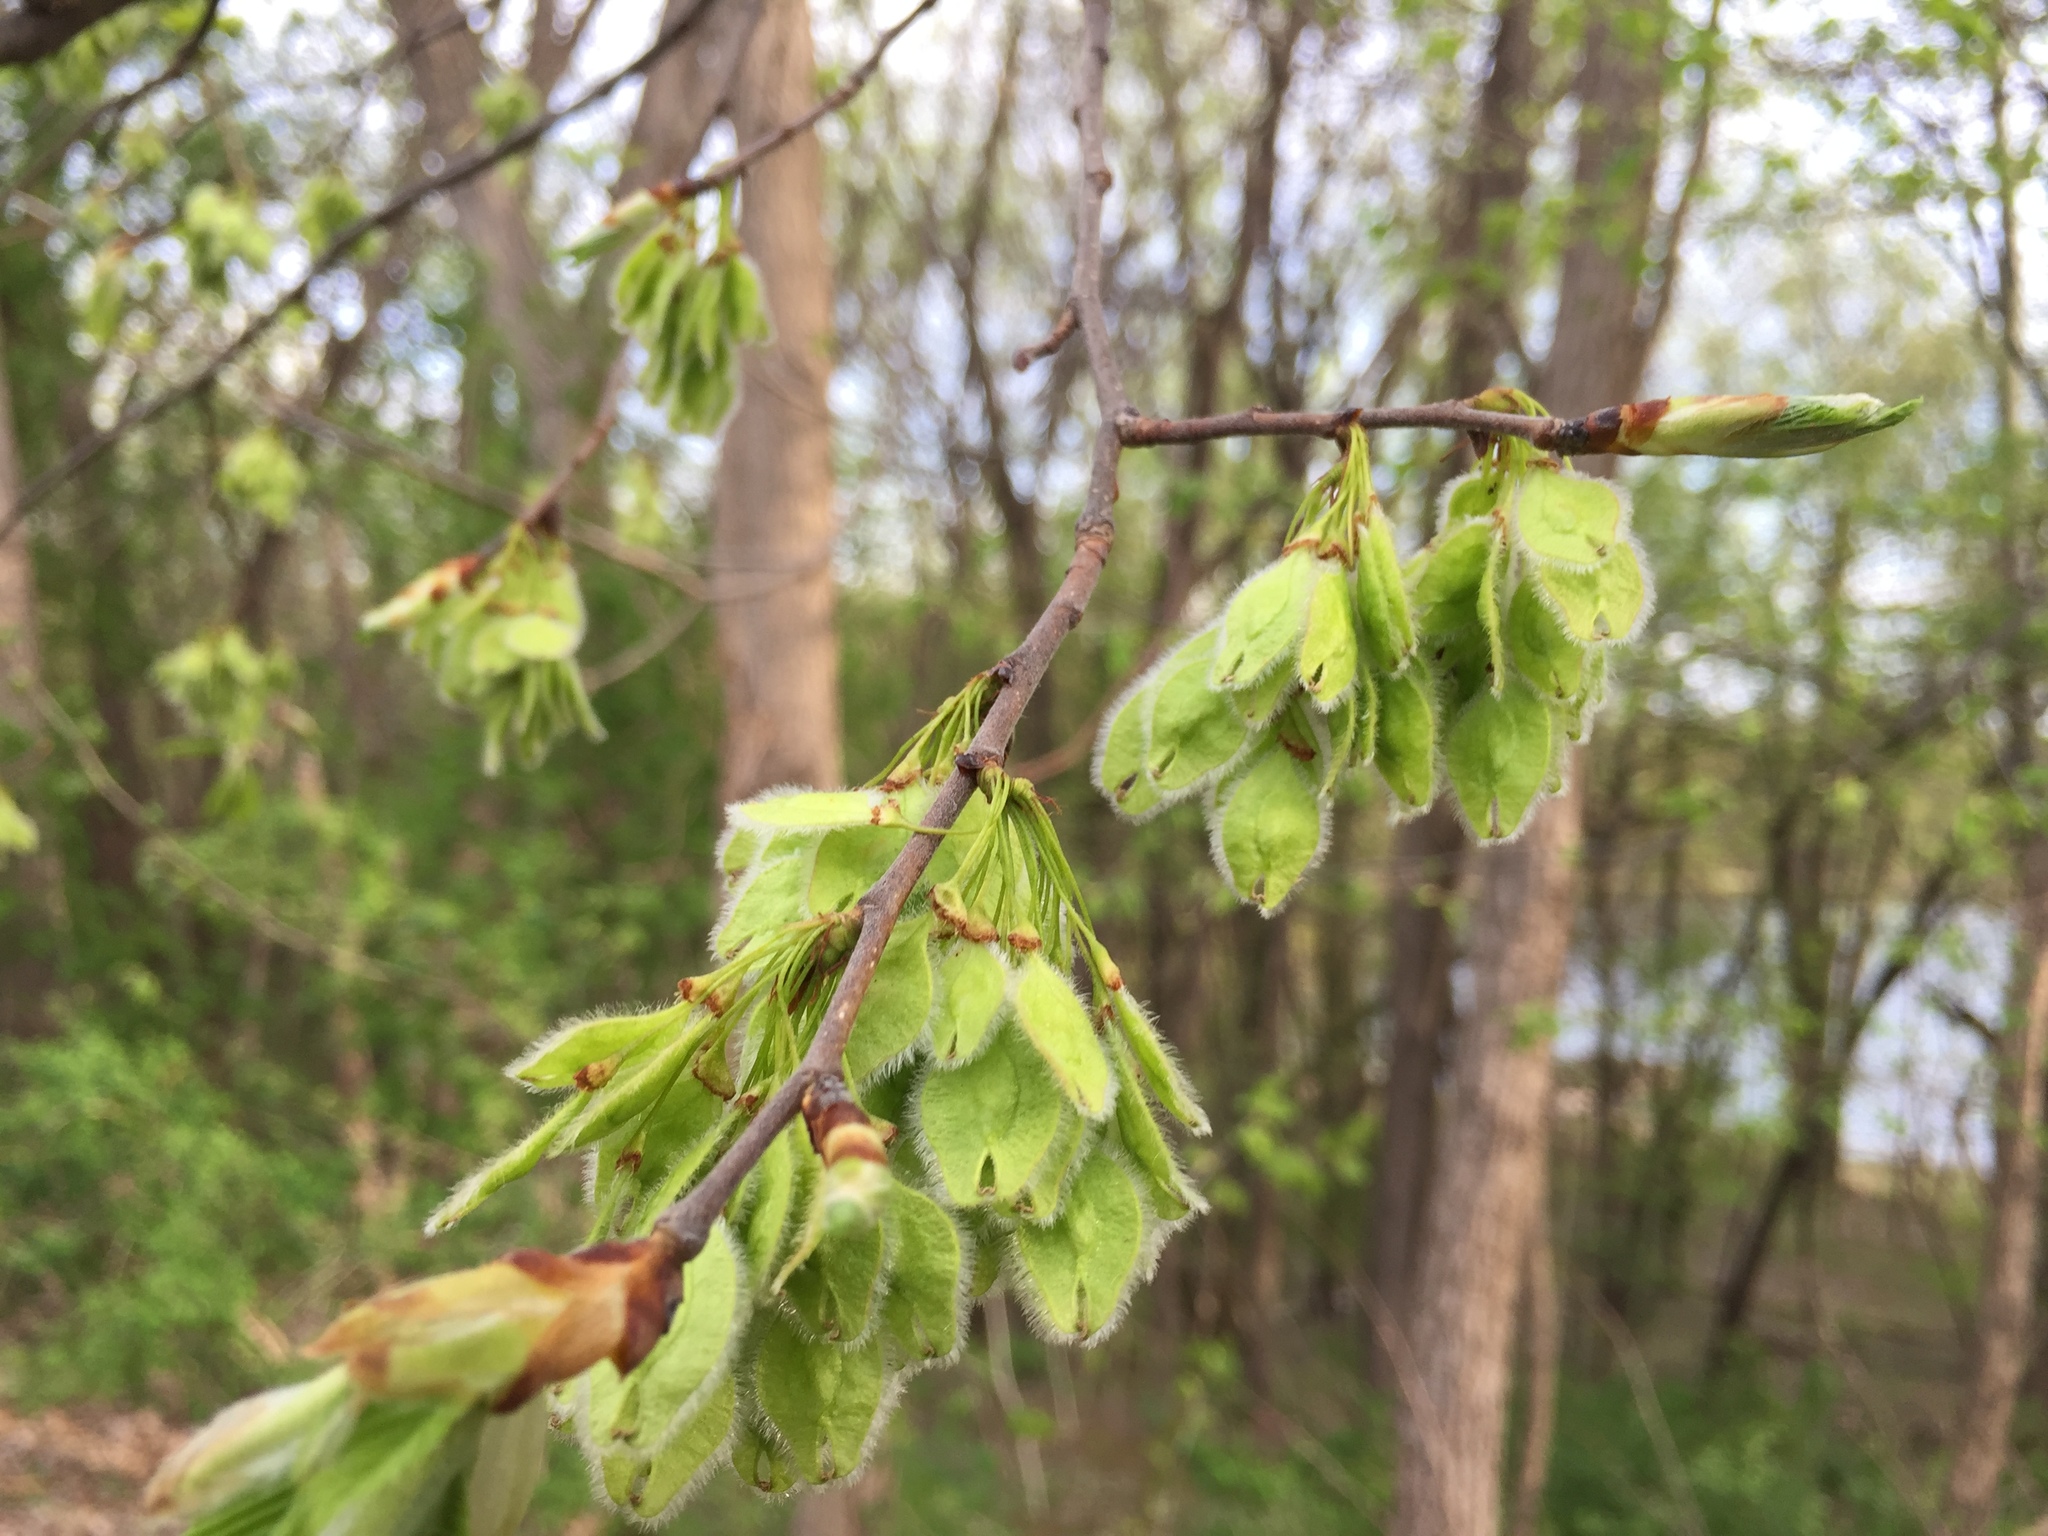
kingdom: Plantae
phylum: Tracheophyta
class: Magnoliopsida
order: Rosales
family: Ulmaceae
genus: Ulmus
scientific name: Ulmus americana
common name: American elm
